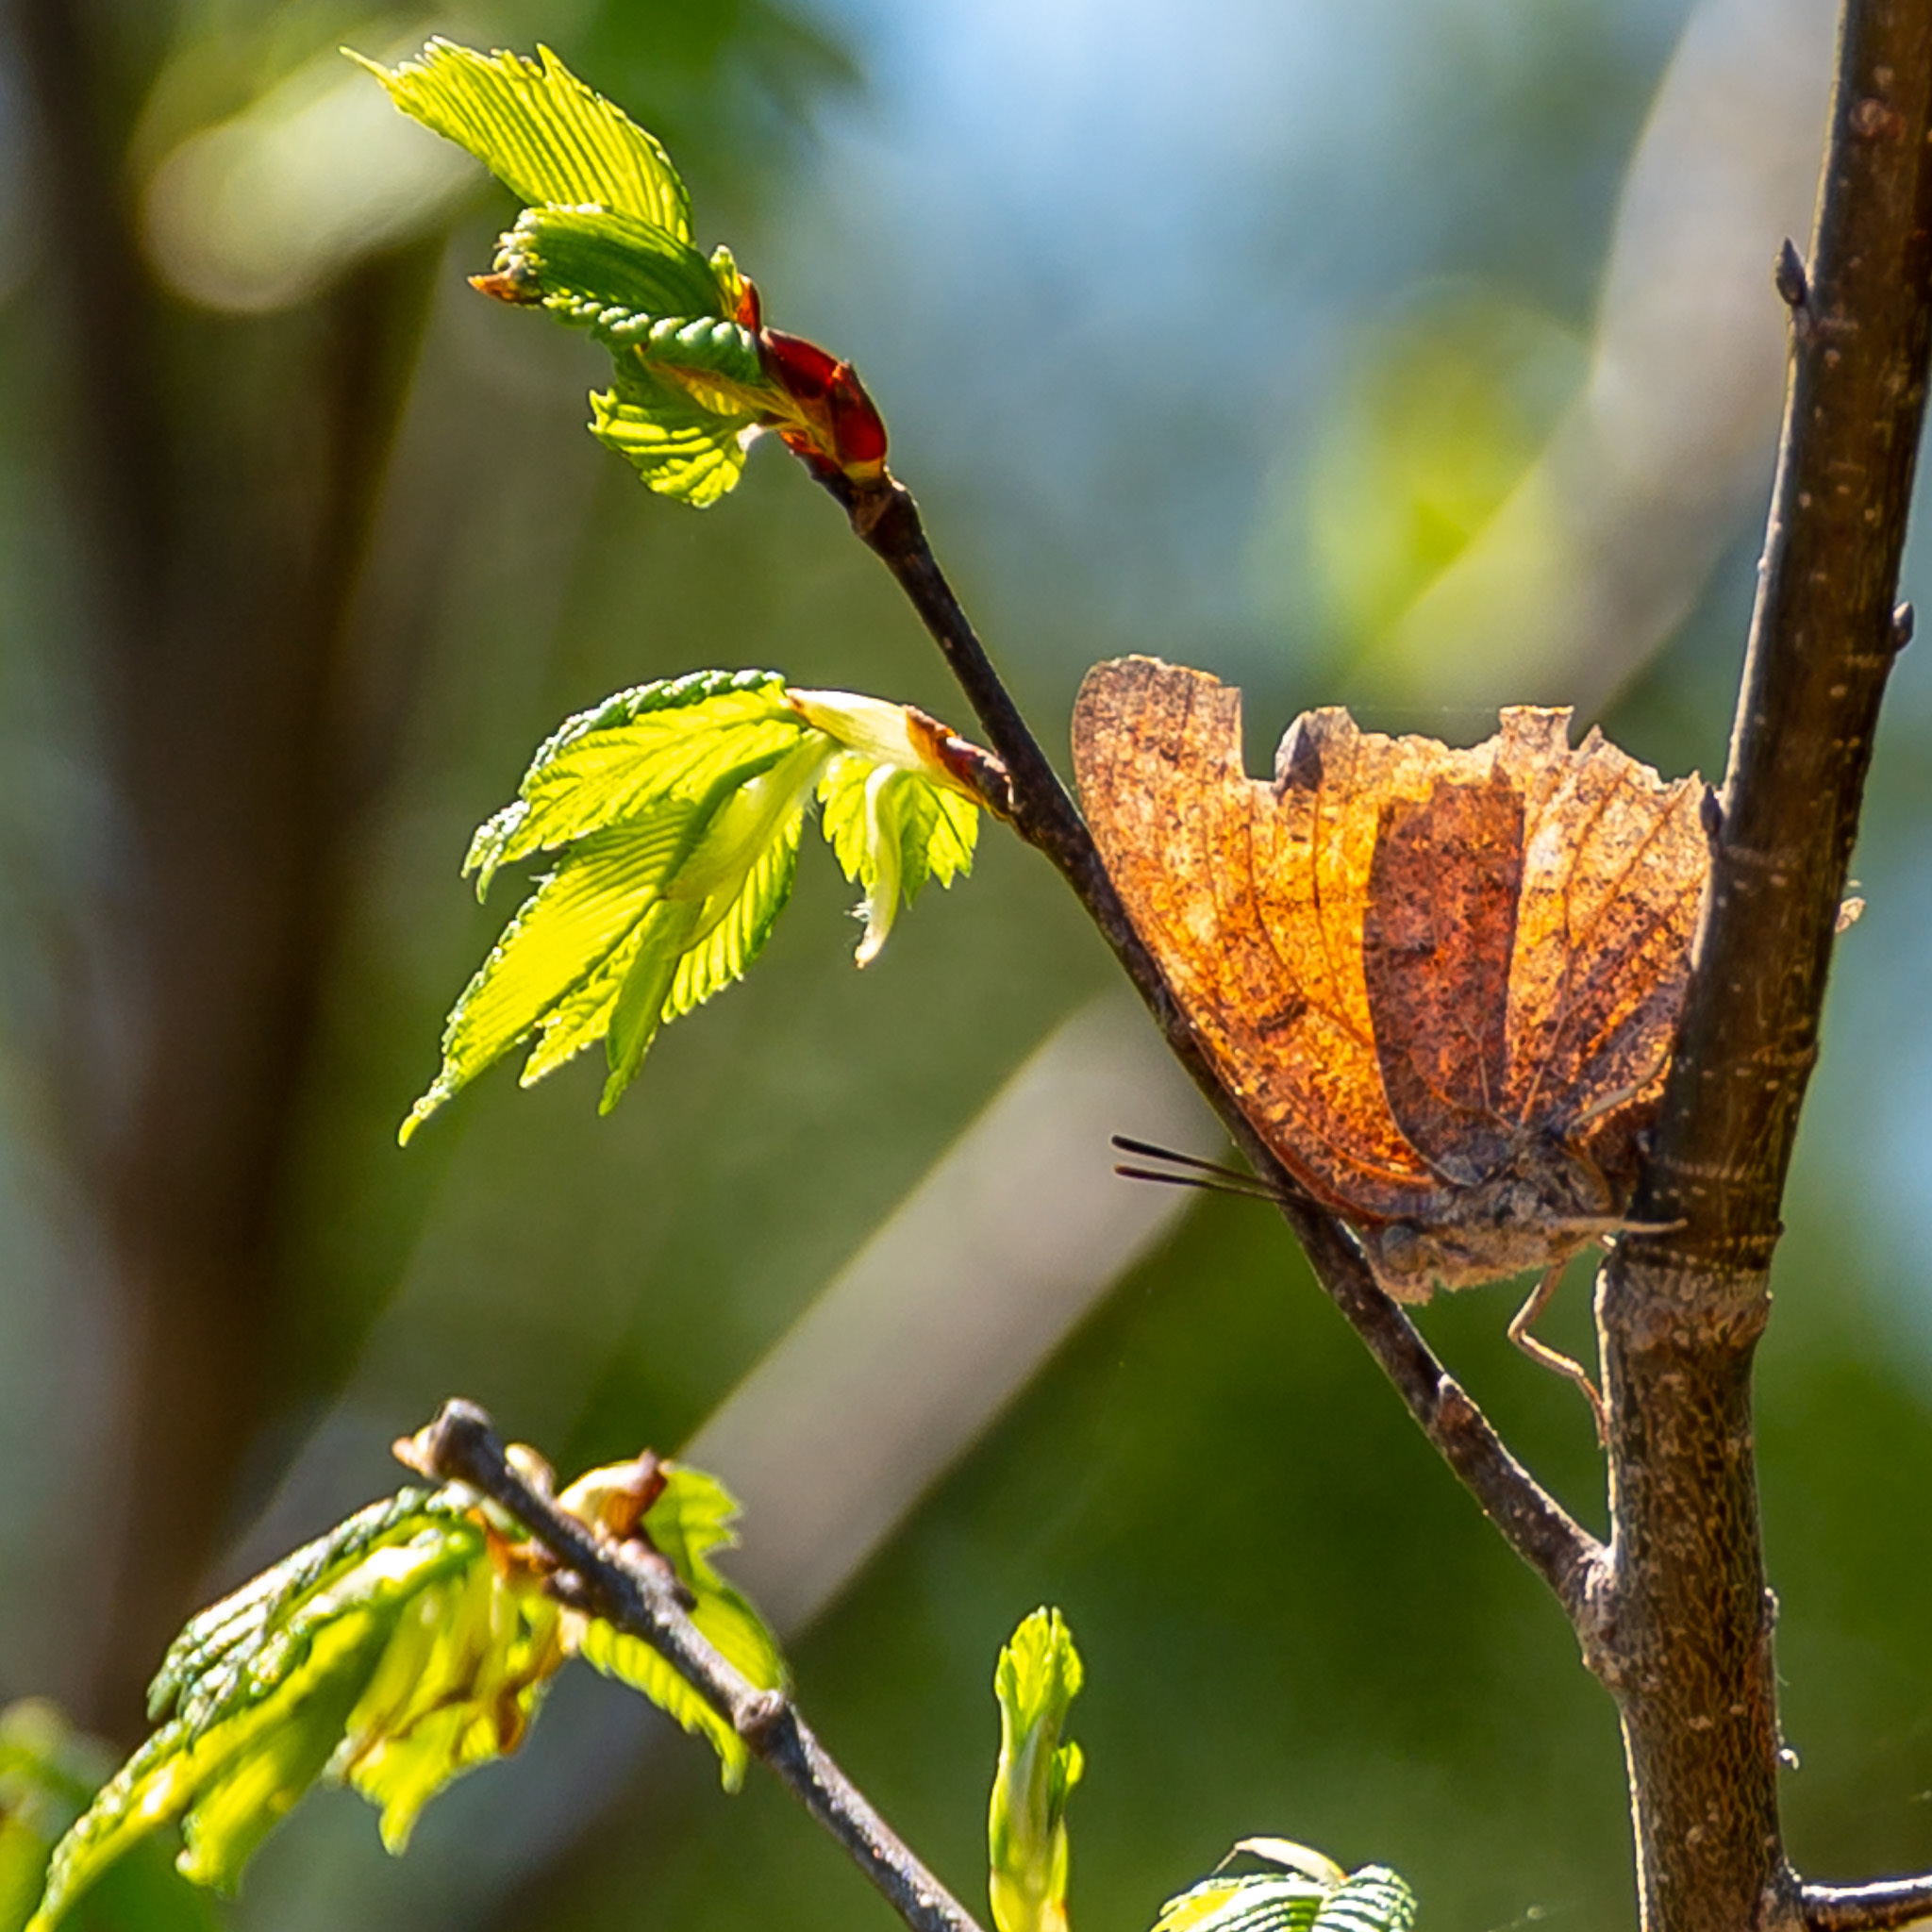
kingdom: Animalia
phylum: Arthropoda
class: Insecta
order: Lepidoptera
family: Nymphalidae
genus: Anaea
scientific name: Anaea andria
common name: Goatweed leafwing
